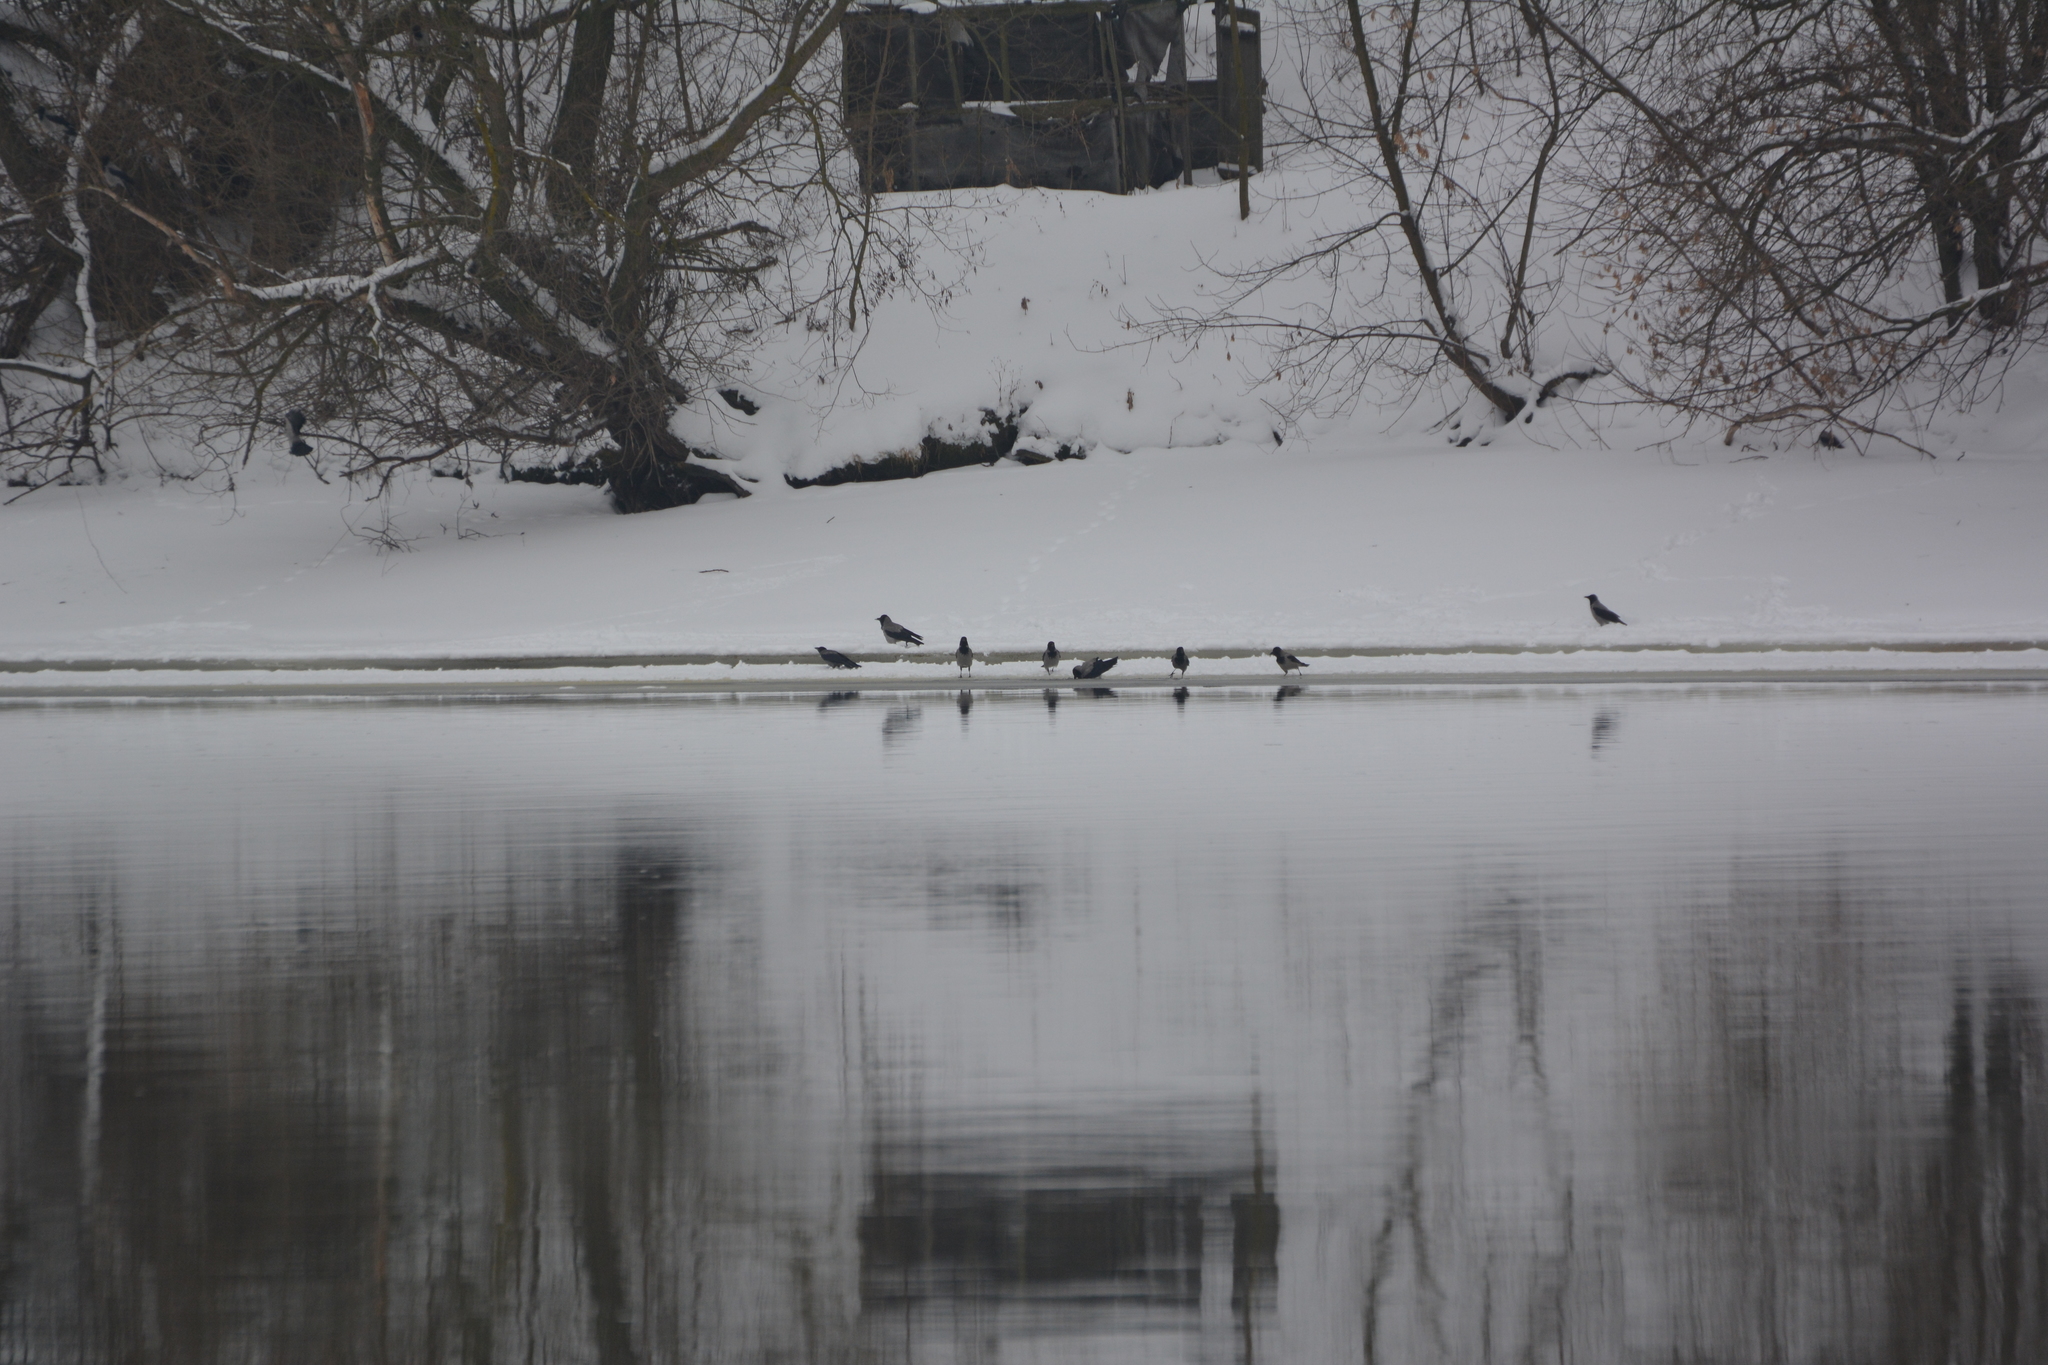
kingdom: Animalia
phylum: Chordata
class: Aves
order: Passeriformes
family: Corvidae
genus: Corvus
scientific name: Corvus cornix
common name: Hooded crow
